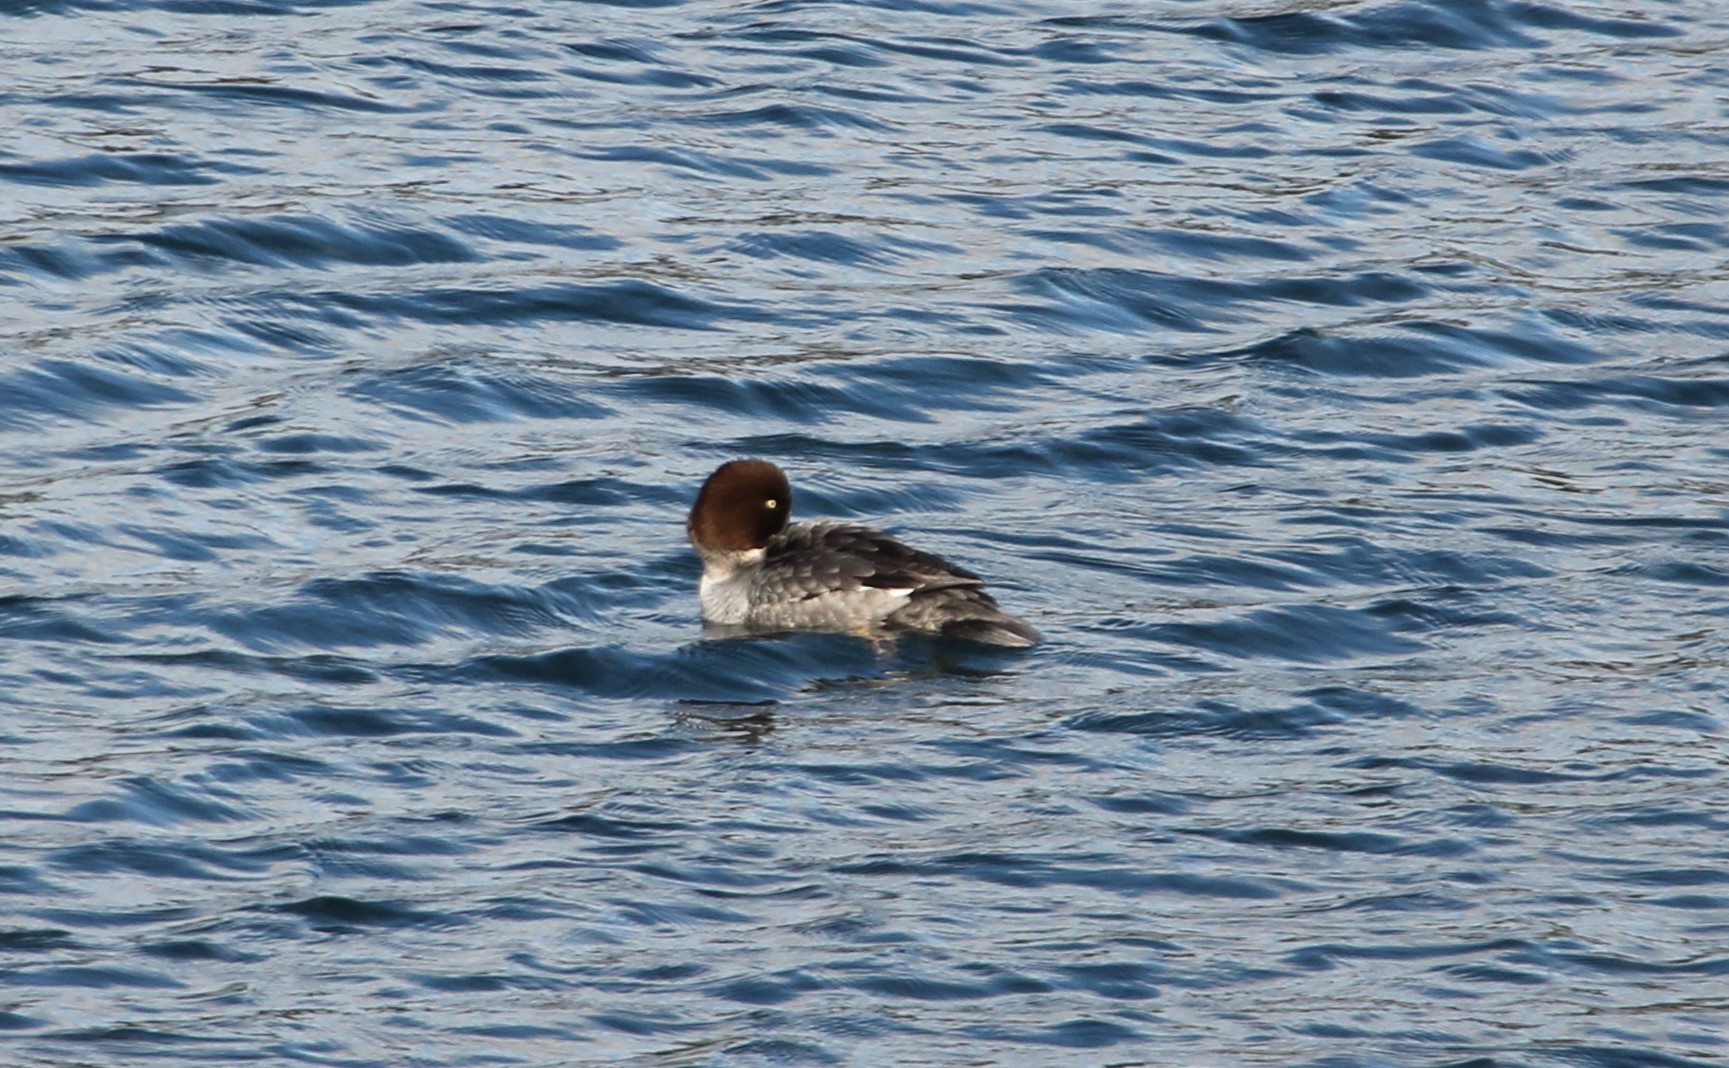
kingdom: Animalia
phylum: Chordata
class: Aves
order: Anseriformes
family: Anatidae
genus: Bucephala
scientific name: Bucephala clangula
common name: Common goldeneye
